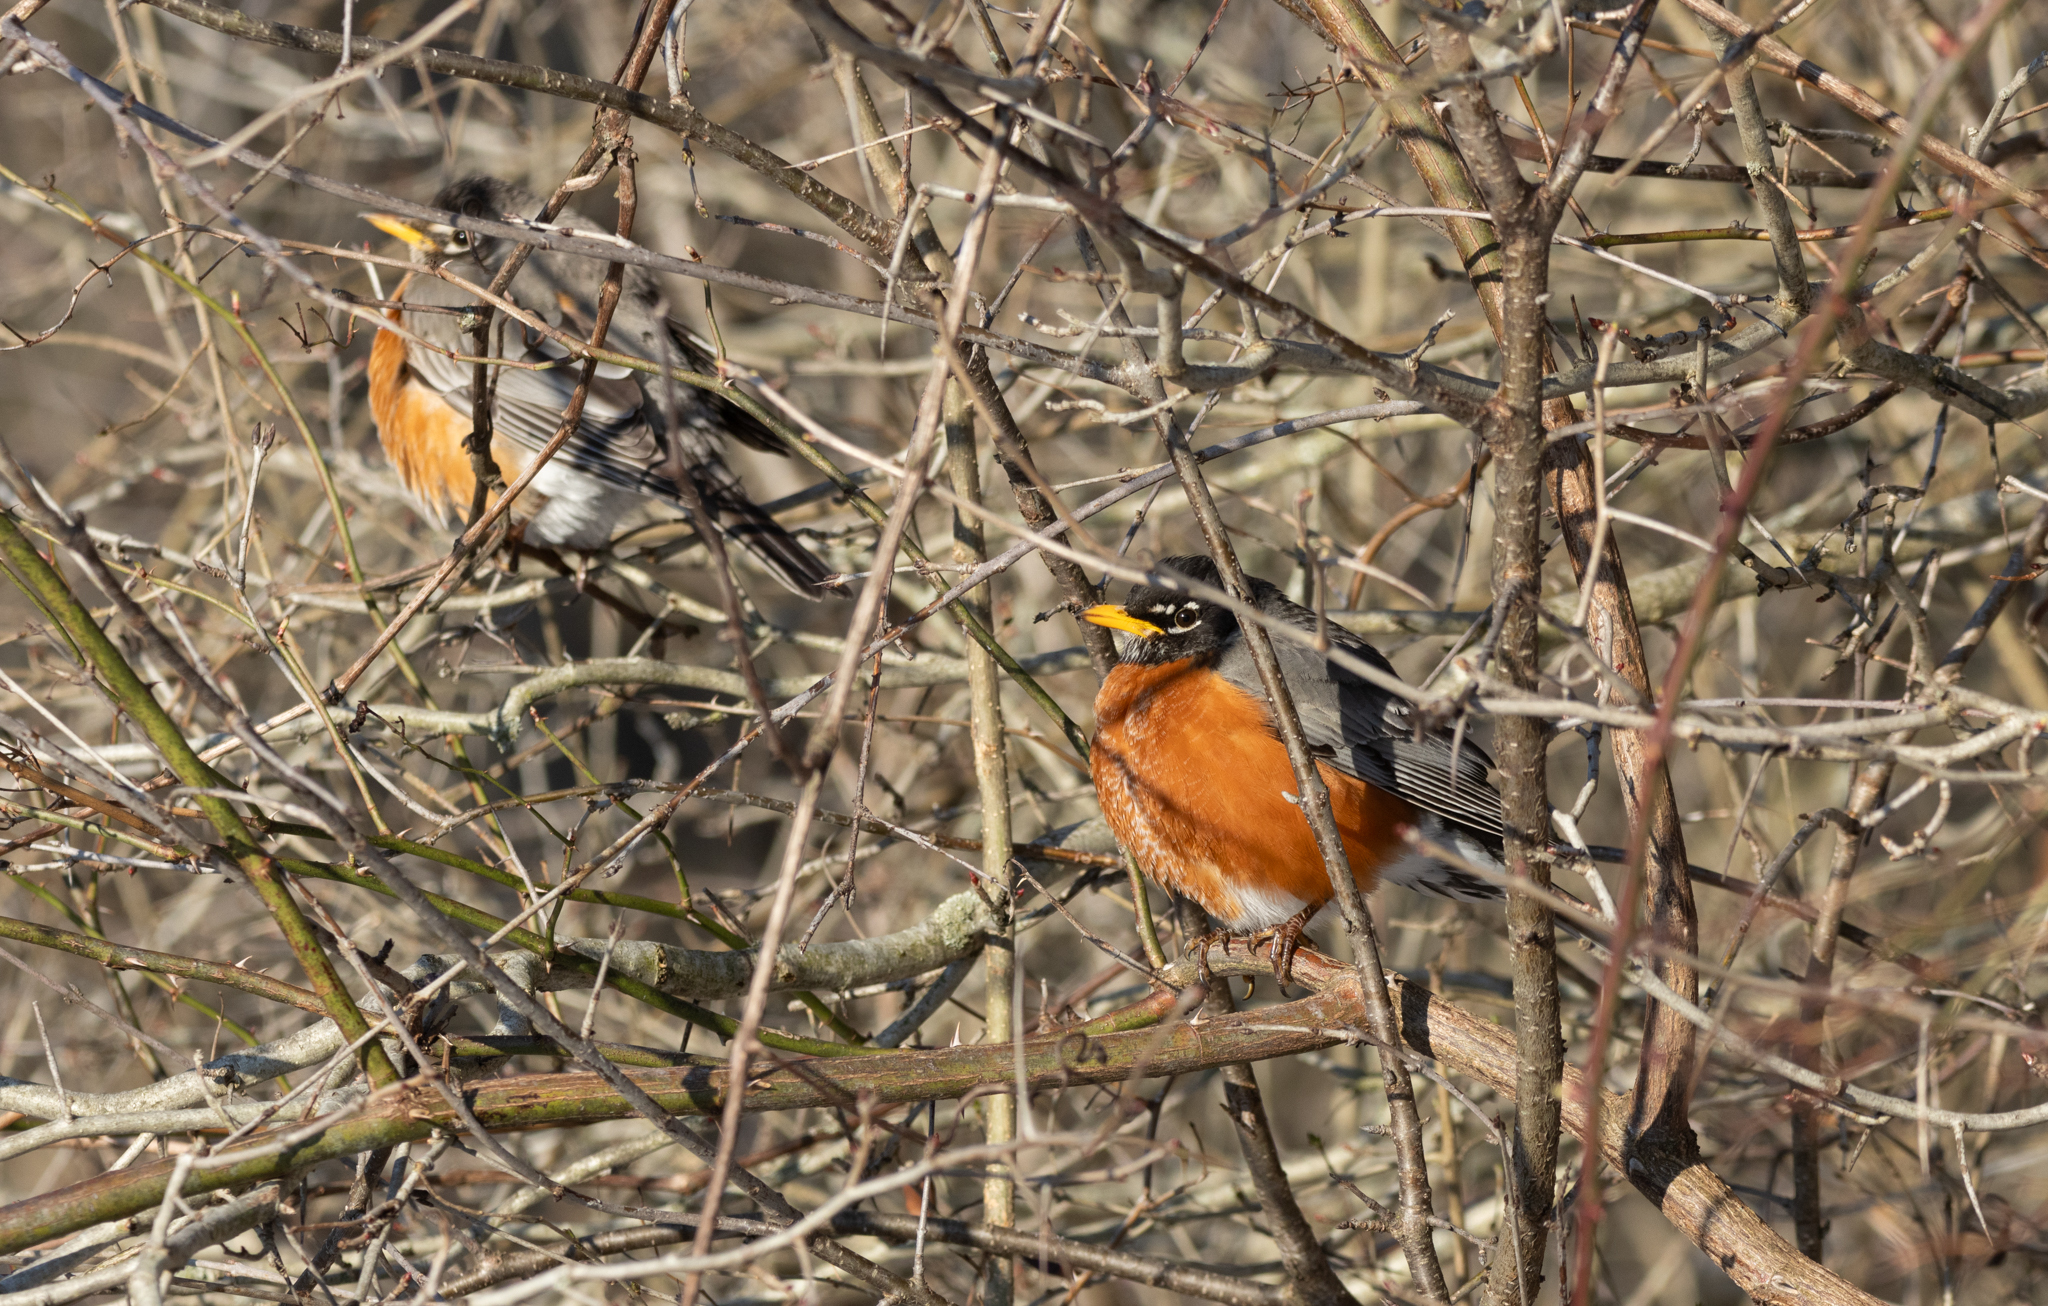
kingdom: Animalia
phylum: Chordata
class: Aves
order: Passeriformes
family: Turdidae
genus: Turdus
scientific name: Turdus migratorius
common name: American robin
